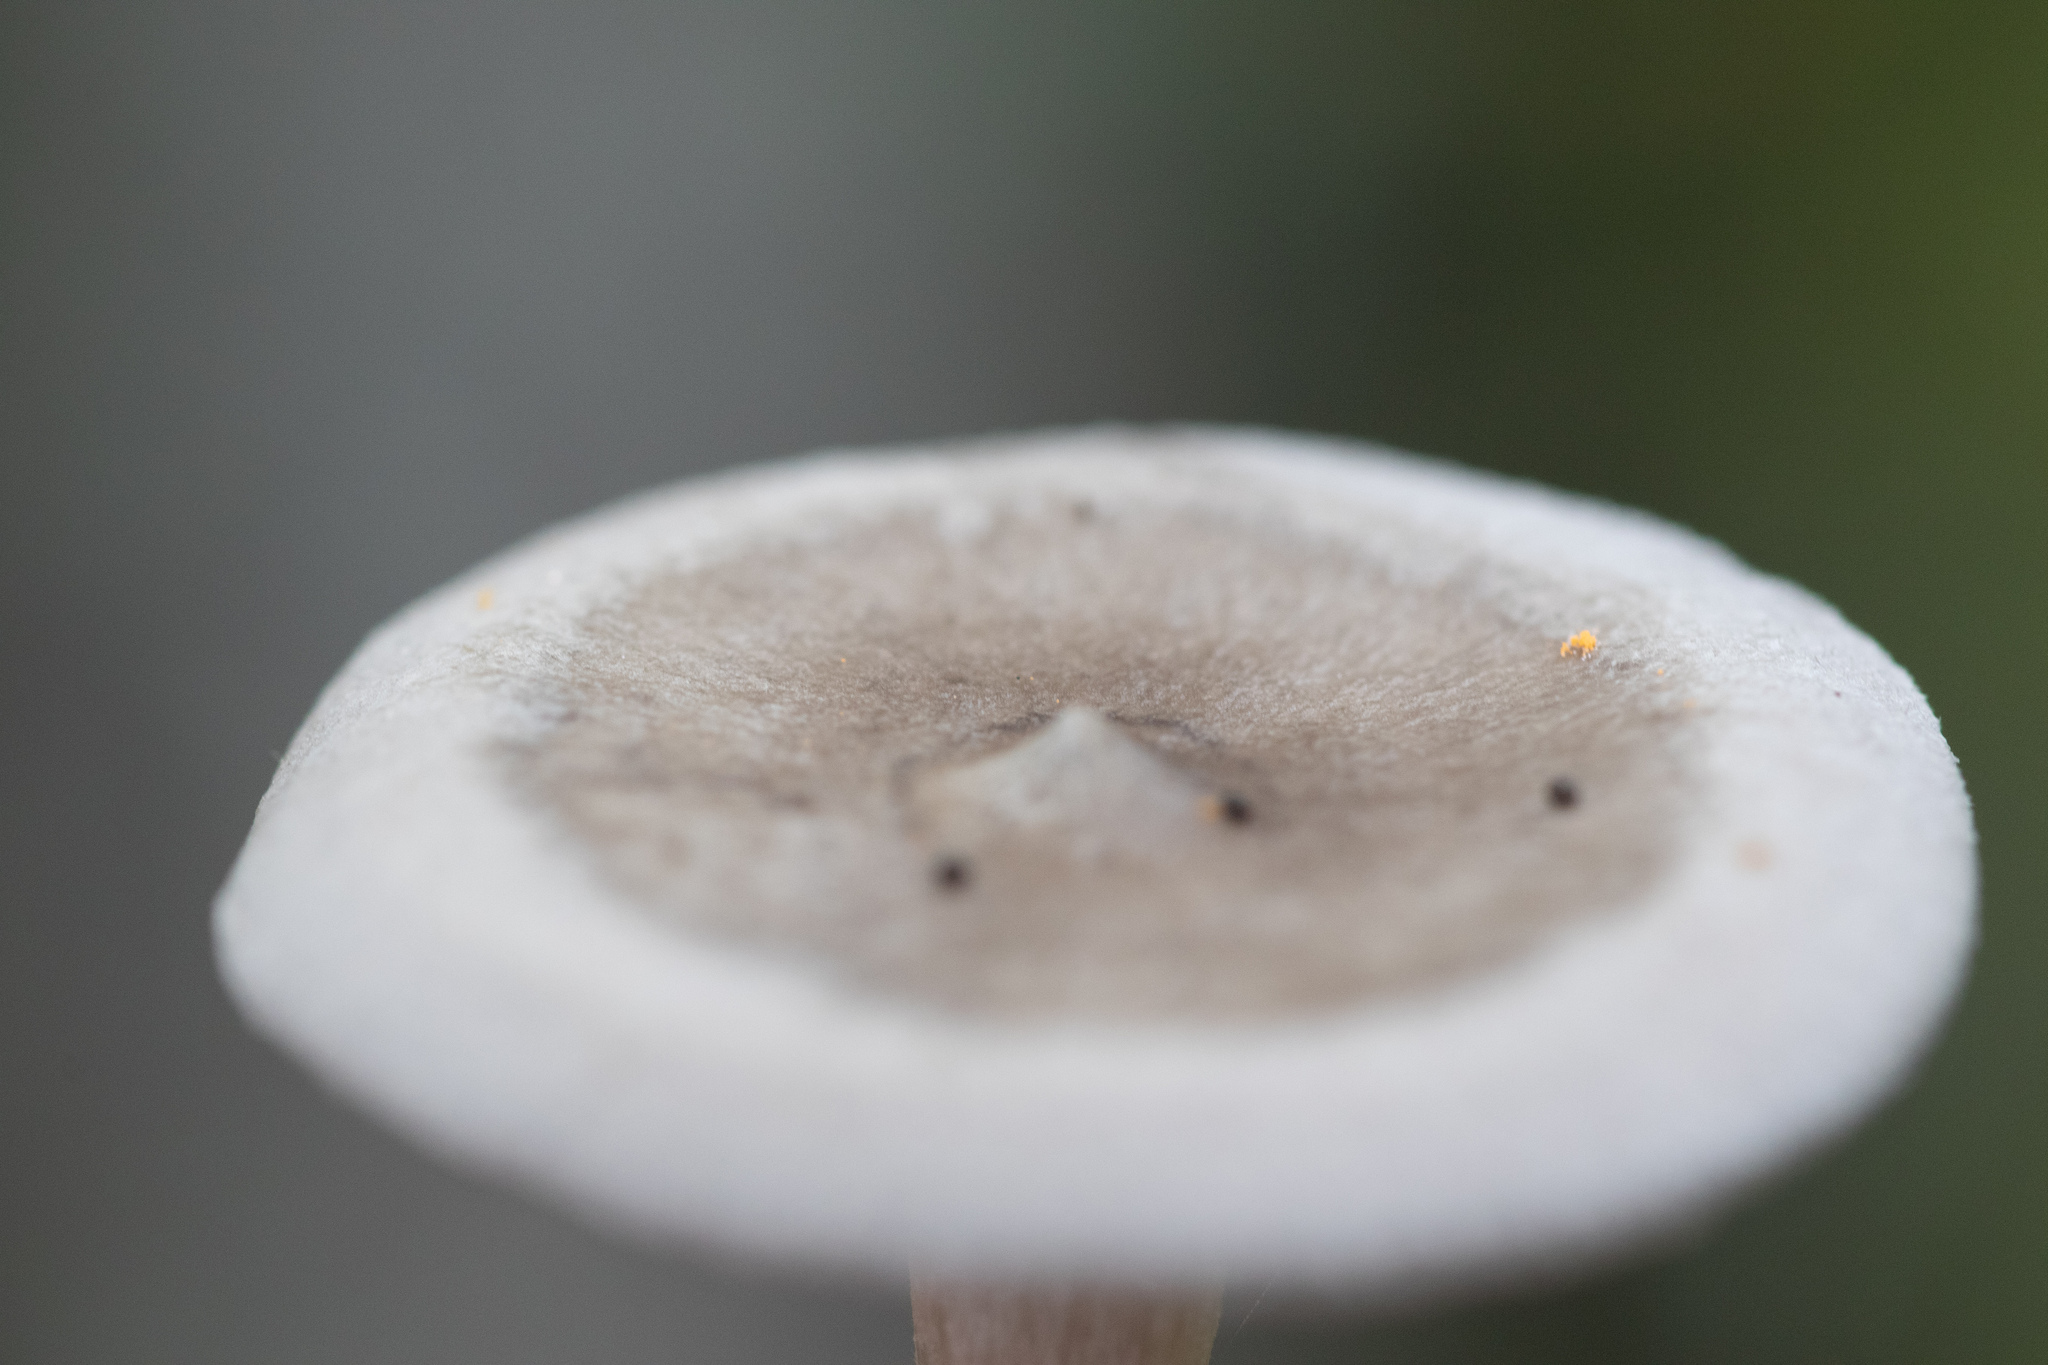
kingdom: Fungi
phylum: Basidiomycota
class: Agaricomycetes
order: Agaricales
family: Hygrophoraceae
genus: Cantharellula
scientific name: Cantharellula umbonata
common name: The humpback
